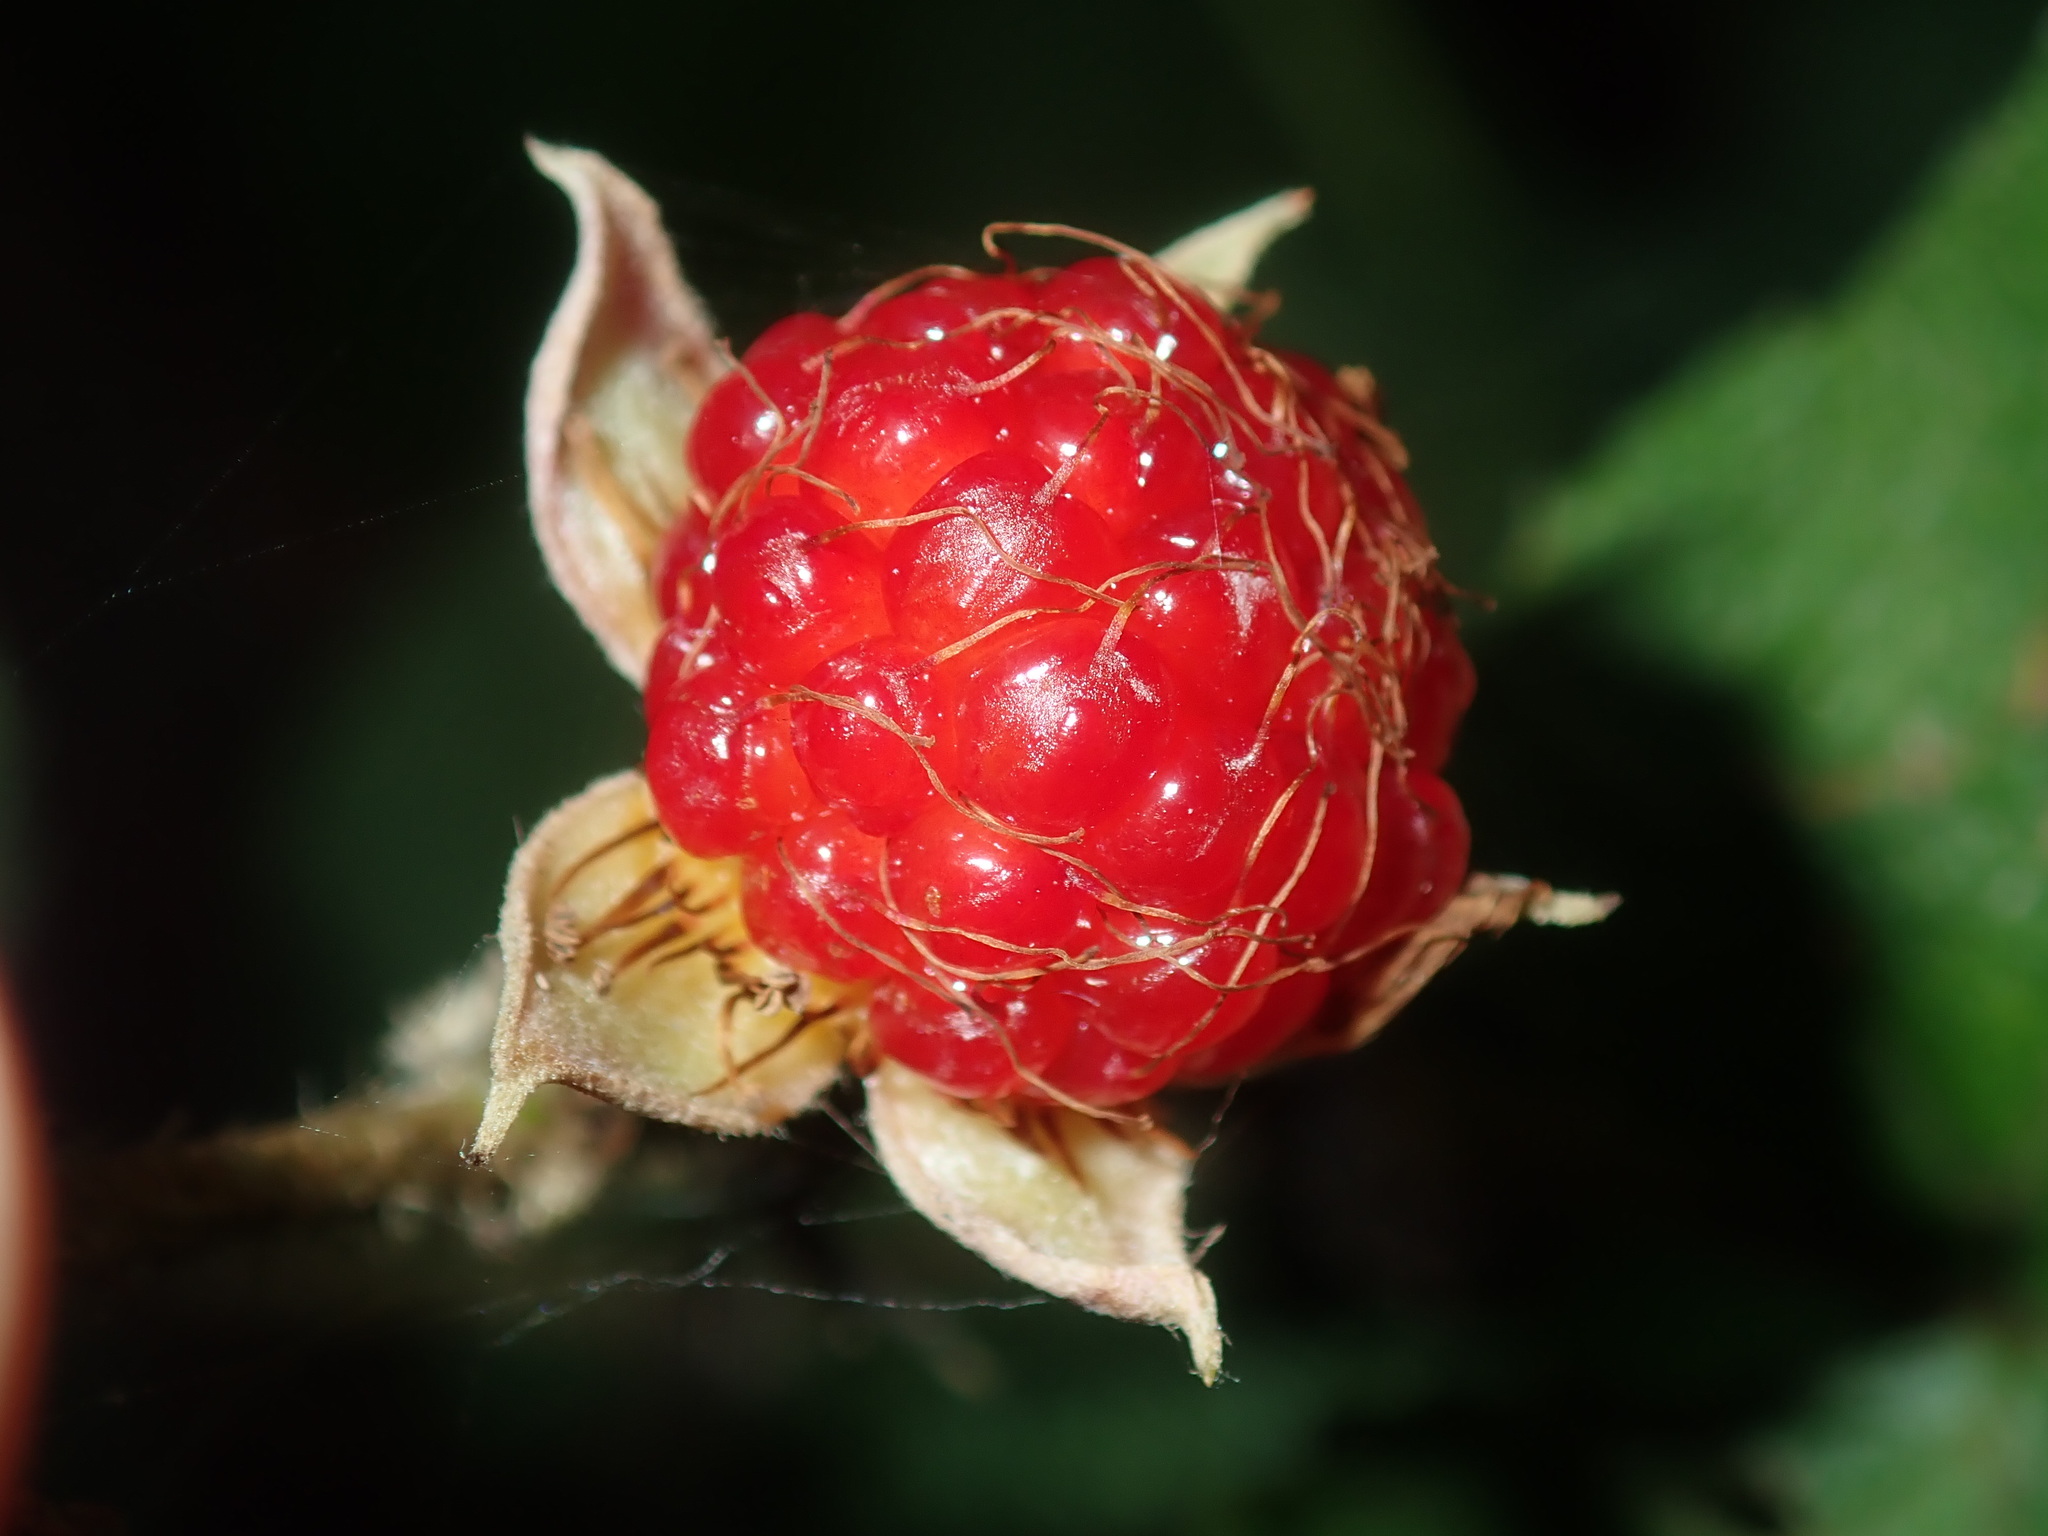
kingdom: Plantae
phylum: Tracheophyta
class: Magnoliopsida
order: Rosales
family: Rosaceae
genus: Rubus
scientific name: Rubus moluccanus
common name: Wild raspberry
